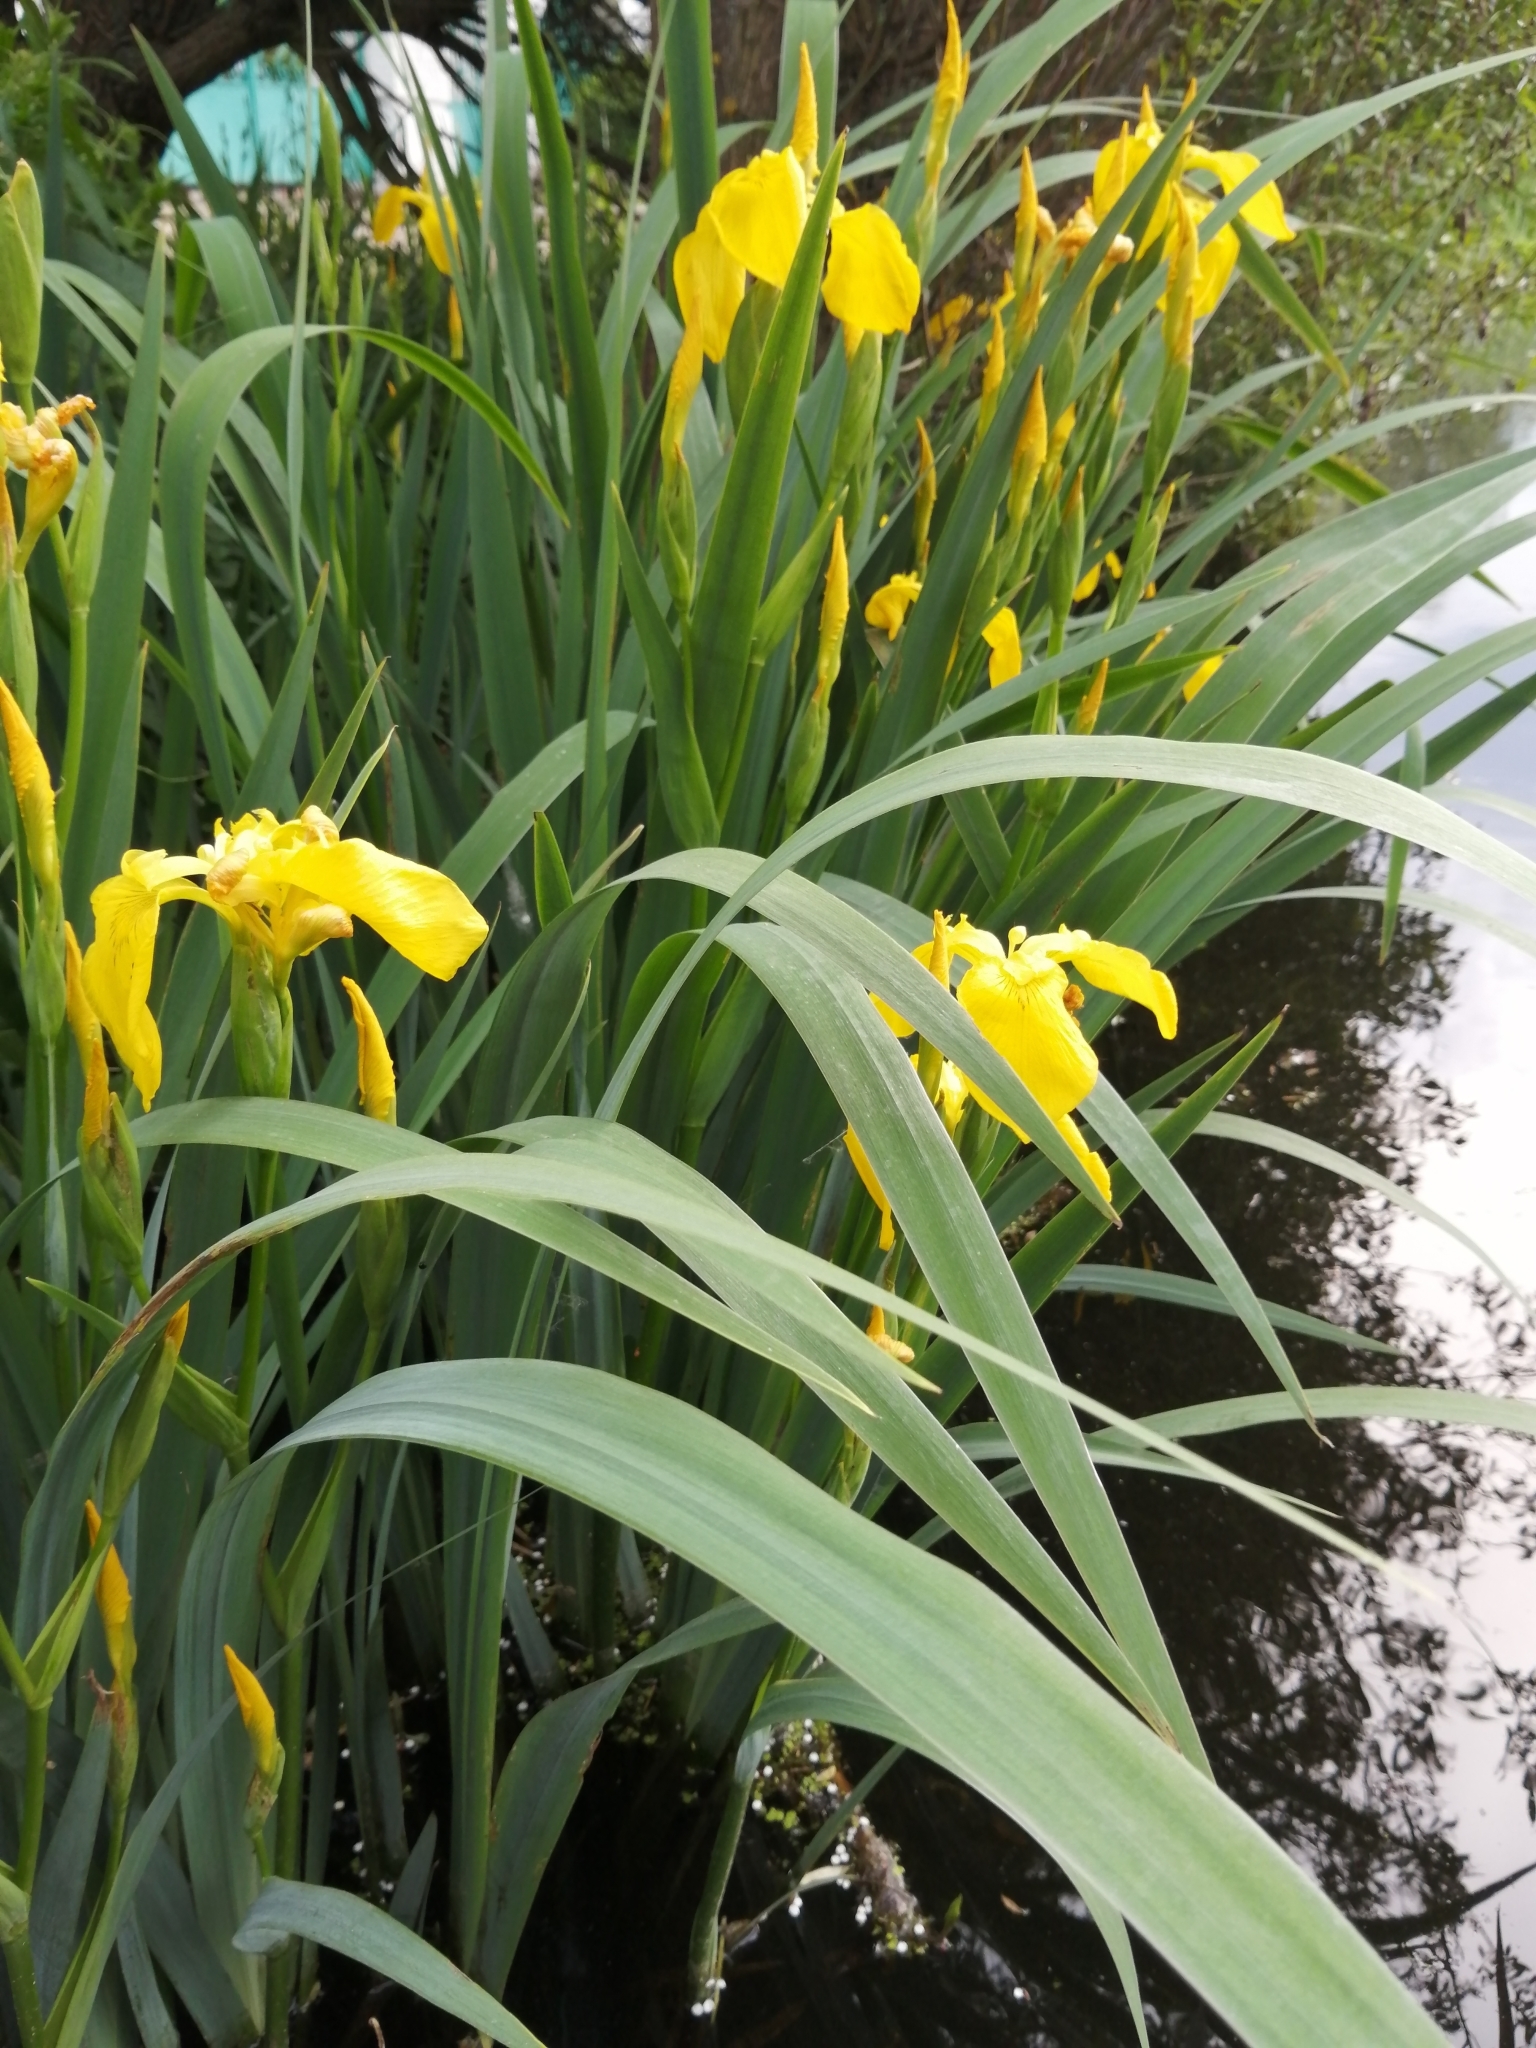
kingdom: Plantae
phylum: Tracheophyta
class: Liliopsida
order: Asparagales
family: Iridaceae
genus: Iris
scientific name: Iris pseudacorus
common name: Yellow flag
